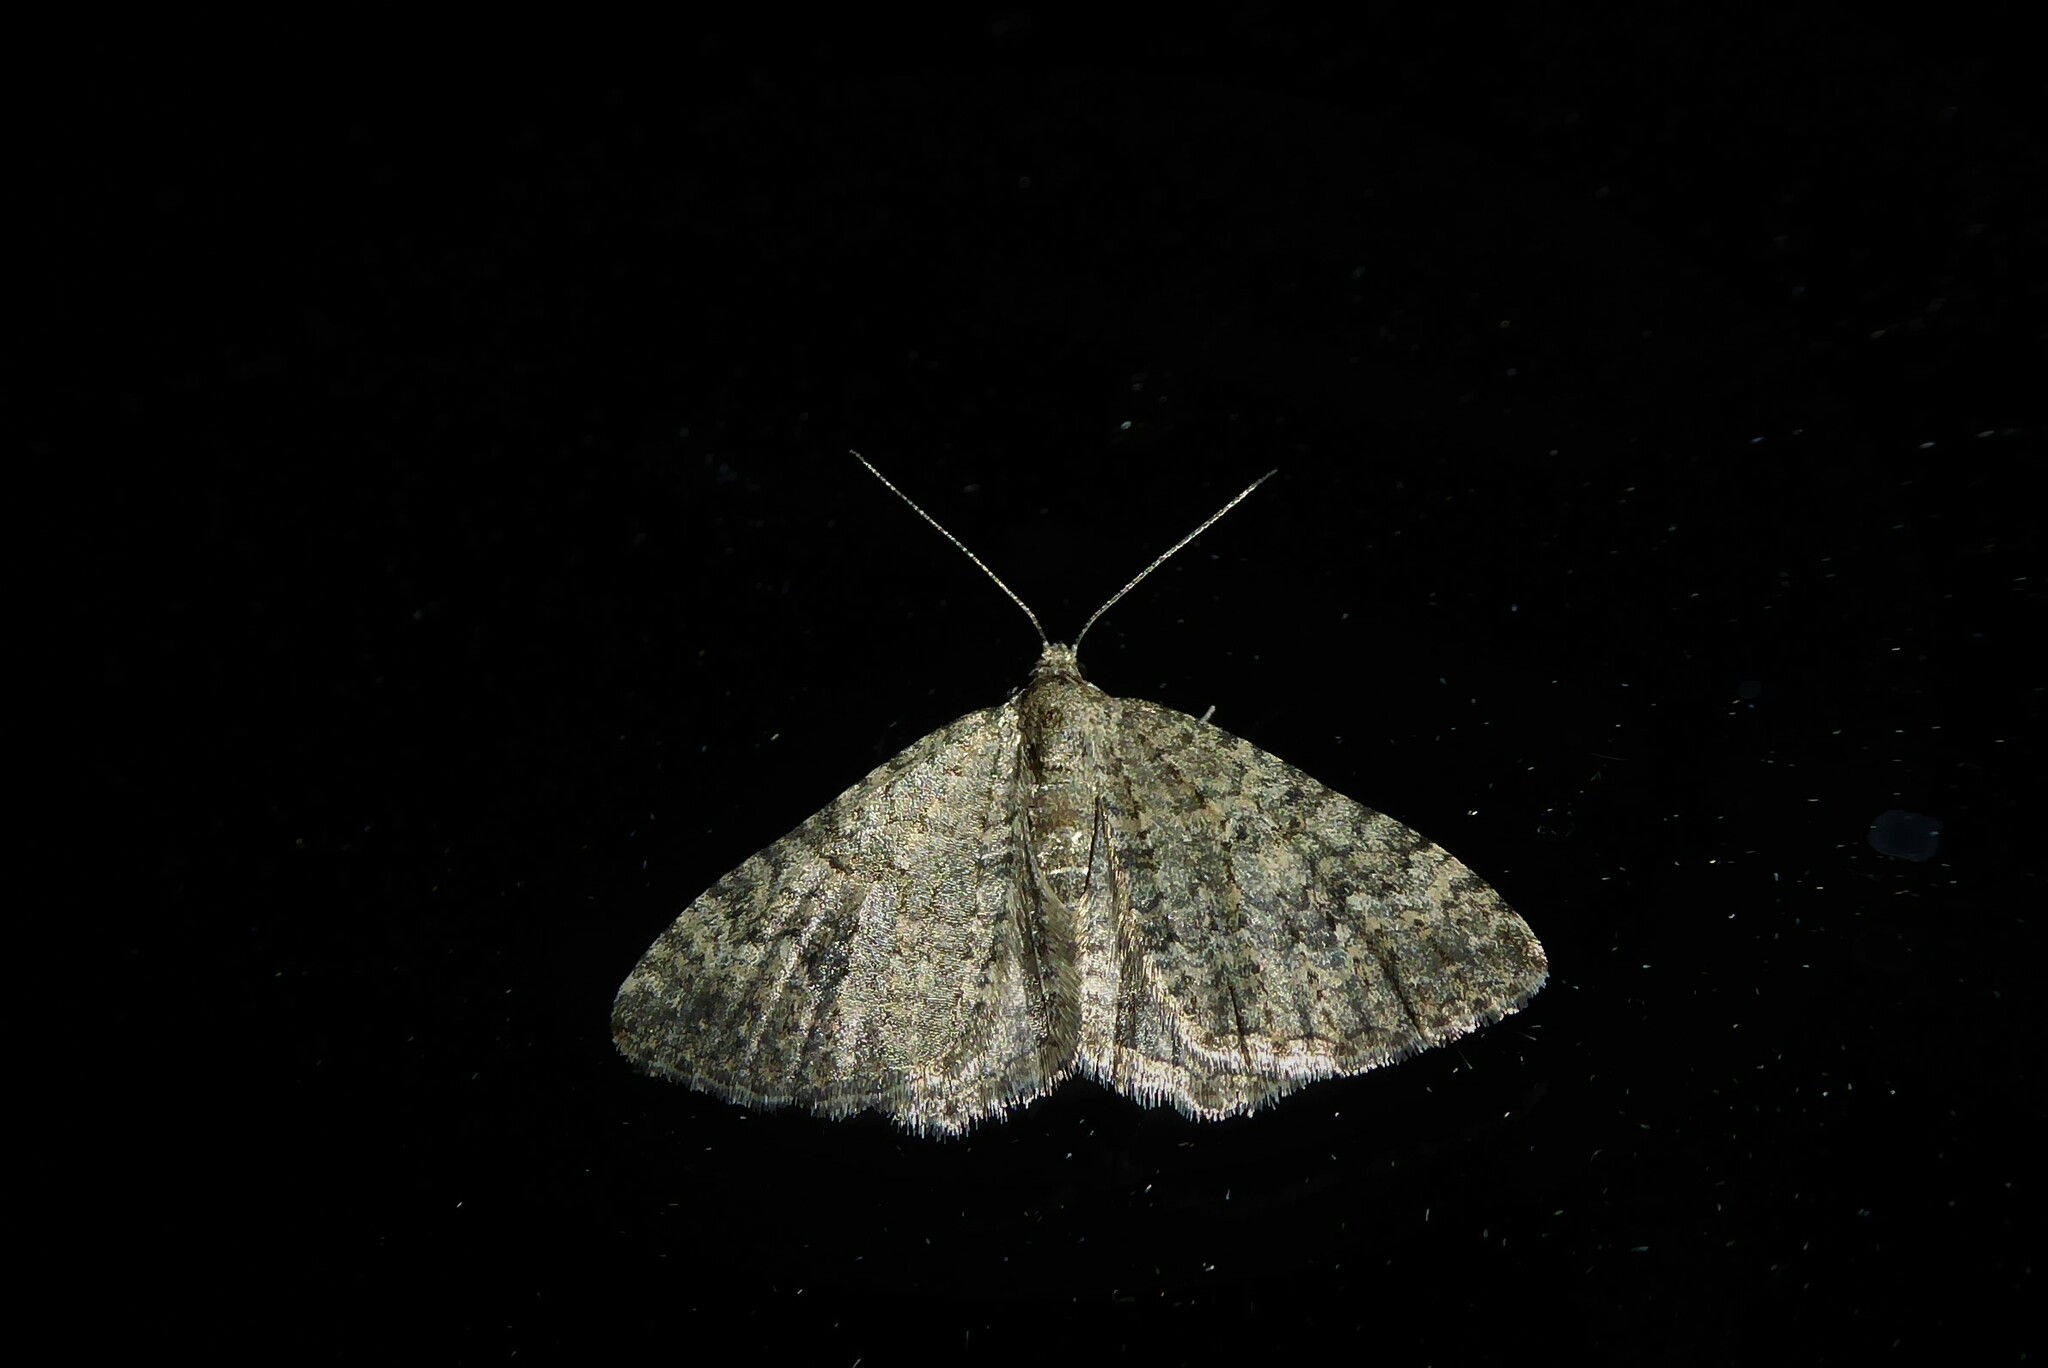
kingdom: Animalia
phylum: Arthropoda
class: Insecta
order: Lepidoptera
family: Geometridae
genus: Helastia
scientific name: Helastia corcularia
